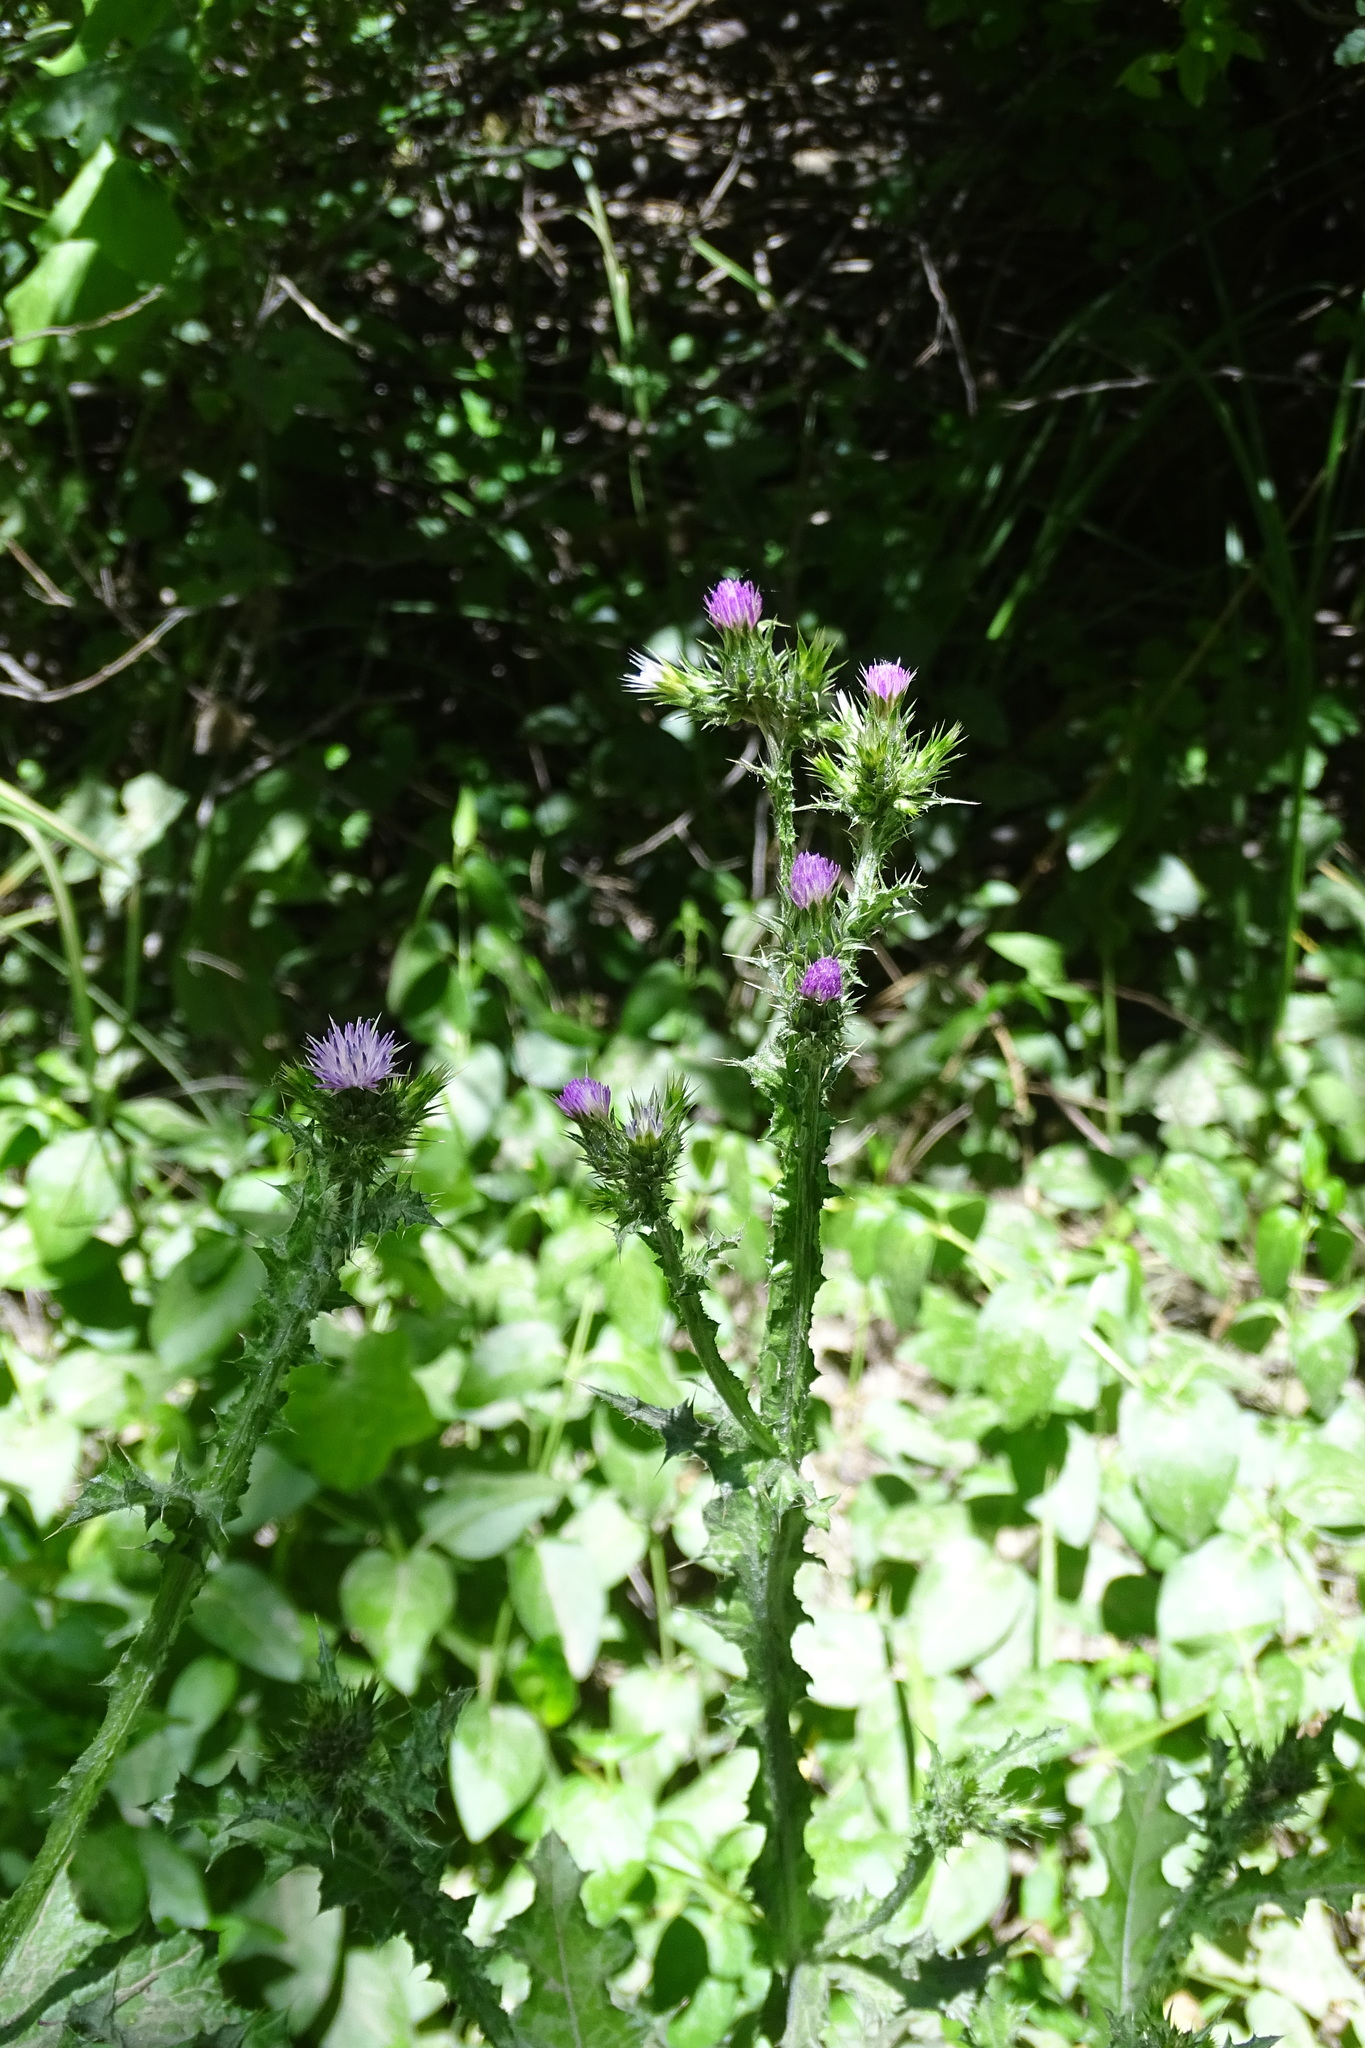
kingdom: Plantae
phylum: Tracheophyta
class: Magnoliopsida
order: Asterales
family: Asteraceae
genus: Carduus
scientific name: Carduus pycnocephalus
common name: Plymouth thistle
